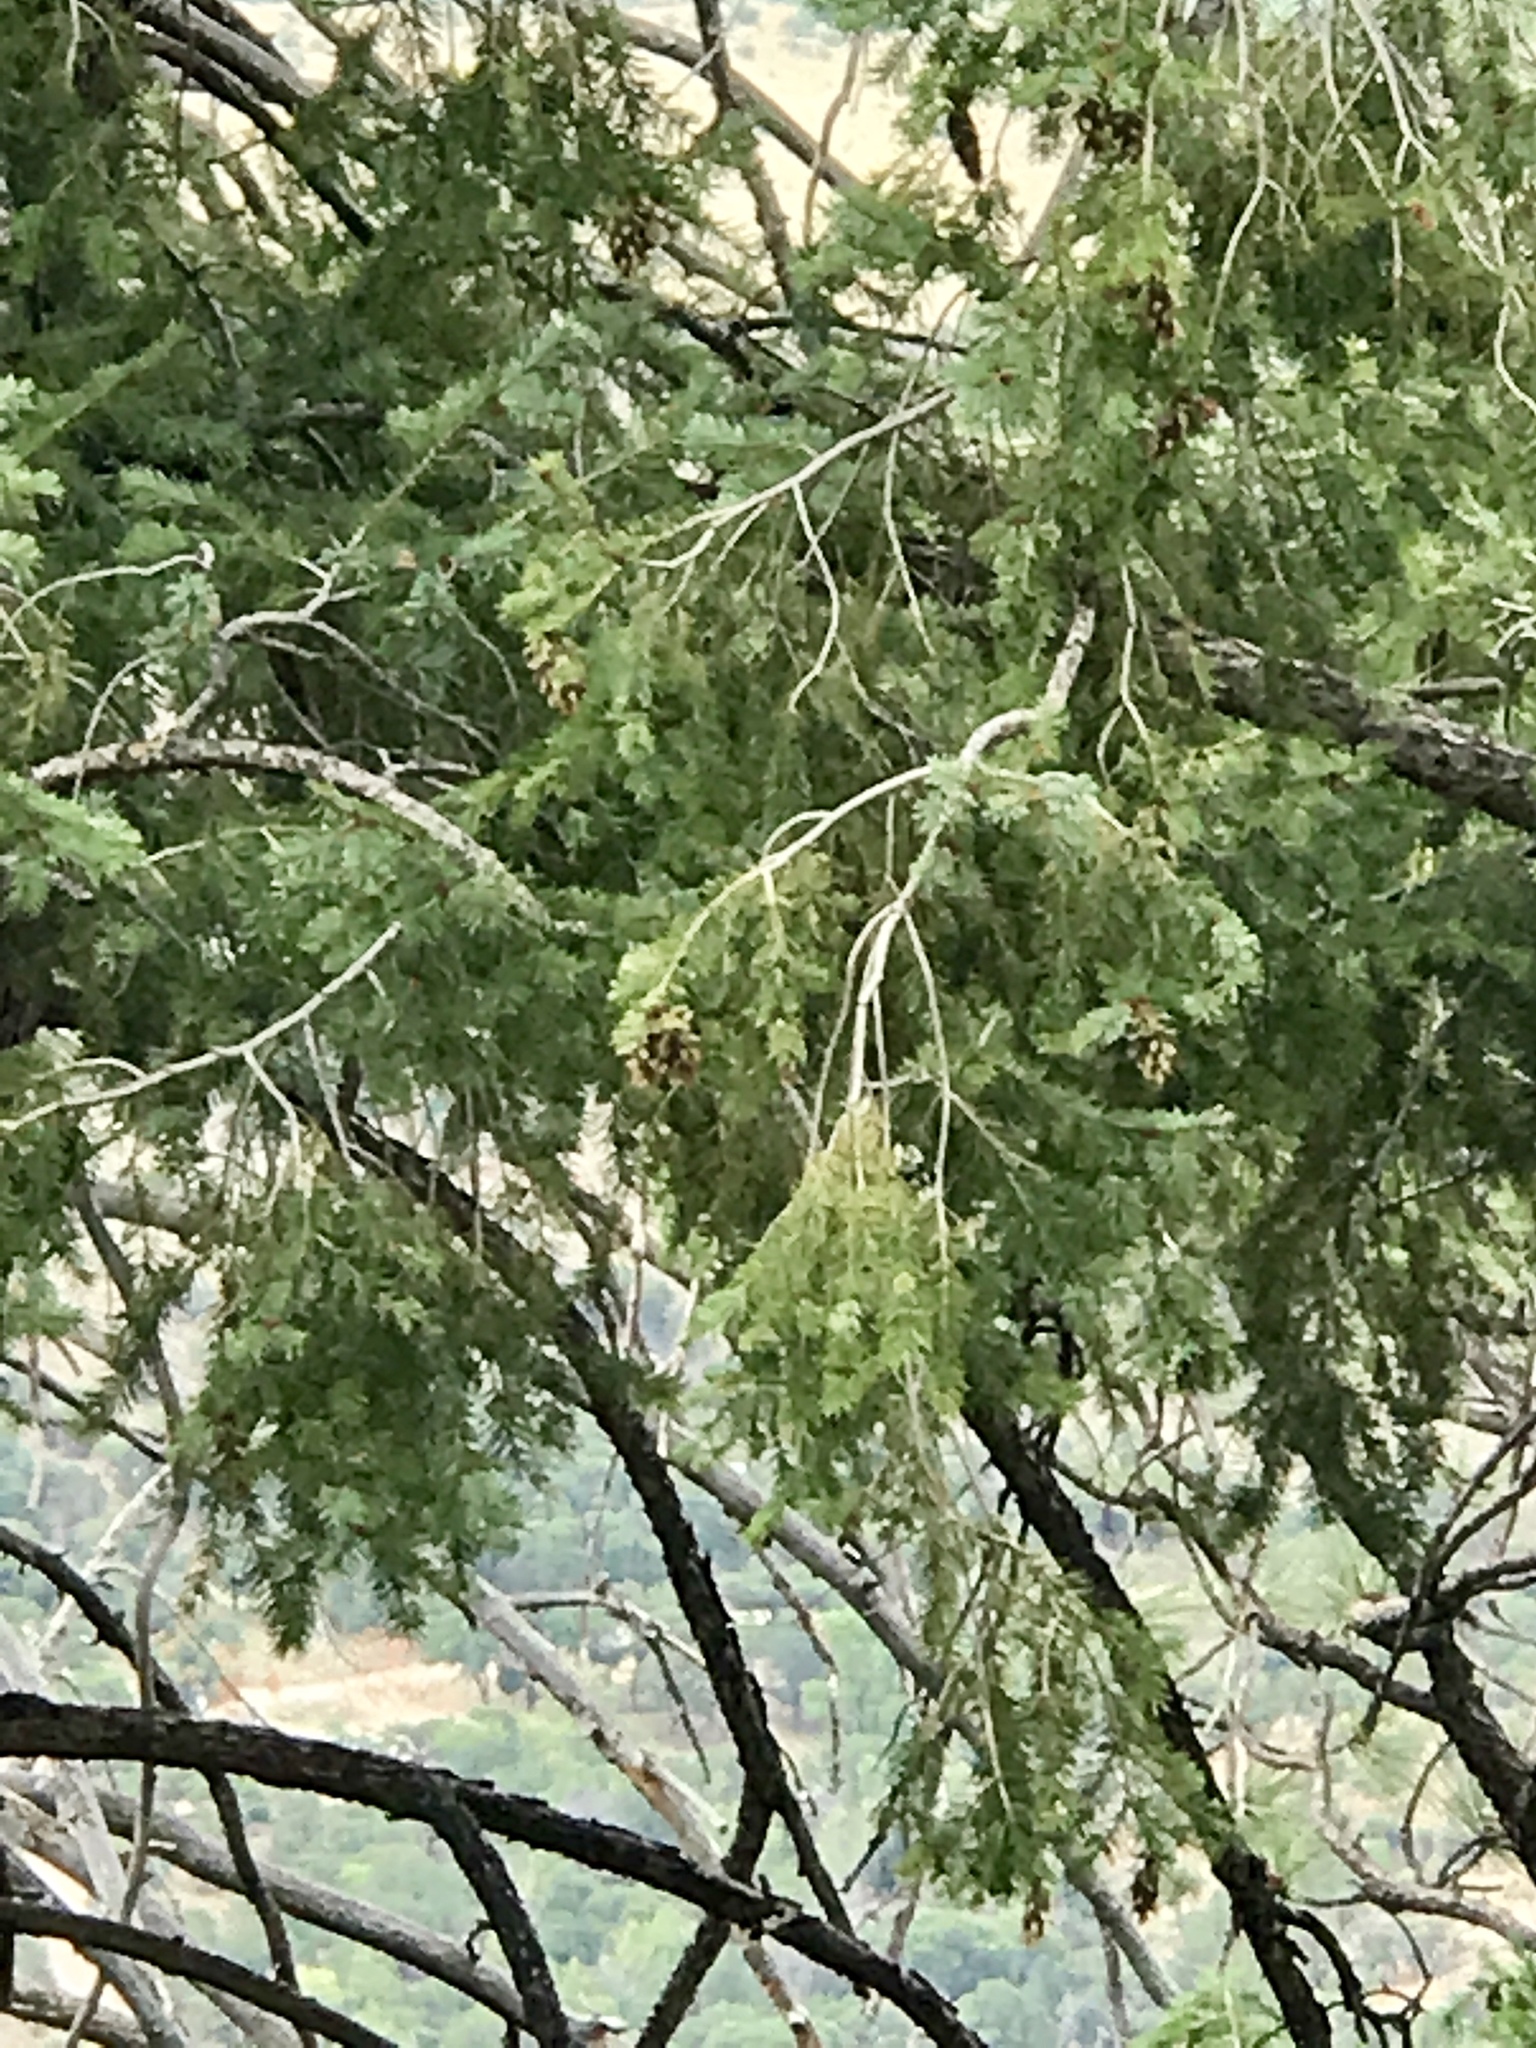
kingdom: Plantae
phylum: Tracheophyta
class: Pinopsida
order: Pinales
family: Pinaceae
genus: Pseudotsuga
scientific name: Pseudotsuga menziesii
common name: Douglas fir
